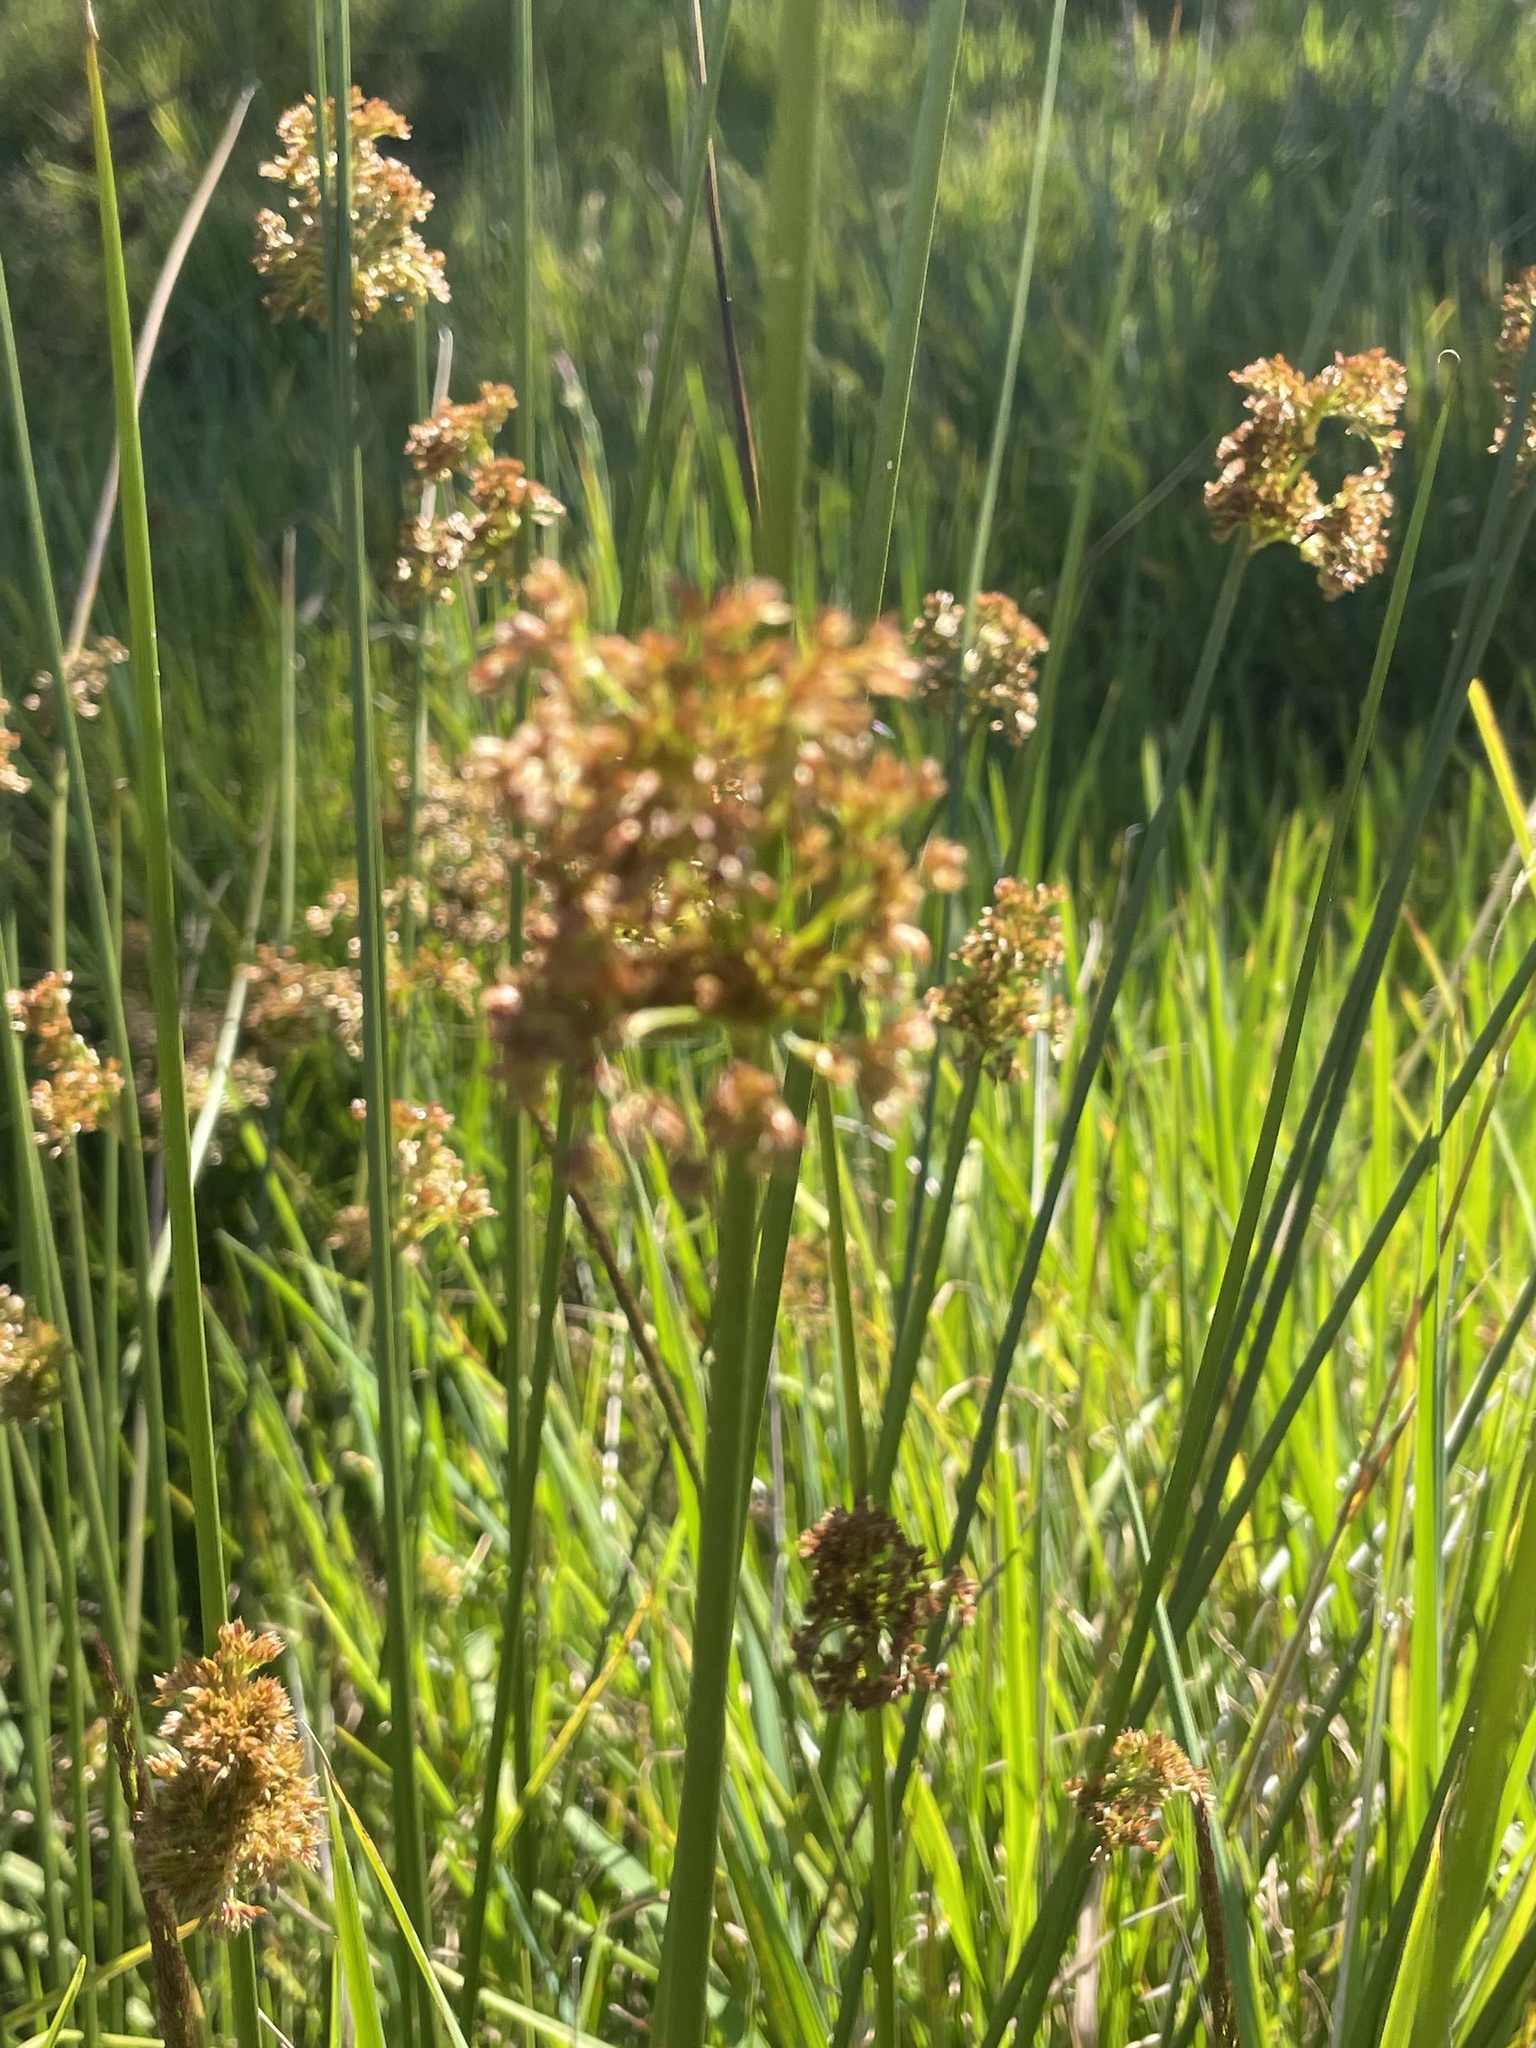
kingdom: Plantae
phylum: Tracheophyta
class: Liliopsida
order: Poales
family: Juncaceae
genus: Juncus
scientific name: Juncus effusus
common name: Soft rush
